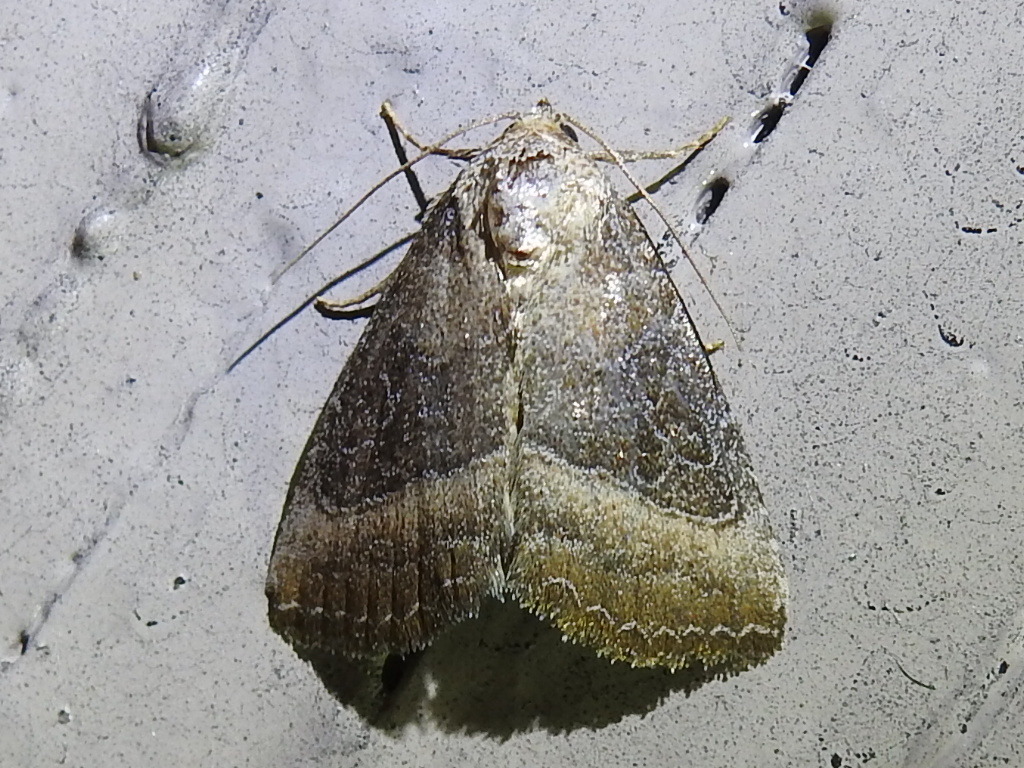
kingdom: Animalia
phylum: Arthropoda
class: Insecta
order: Lepidoptera
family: Noctuidae
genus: Ogdoconta
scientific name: Ogdoconta cinereola
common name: Common pinkband
